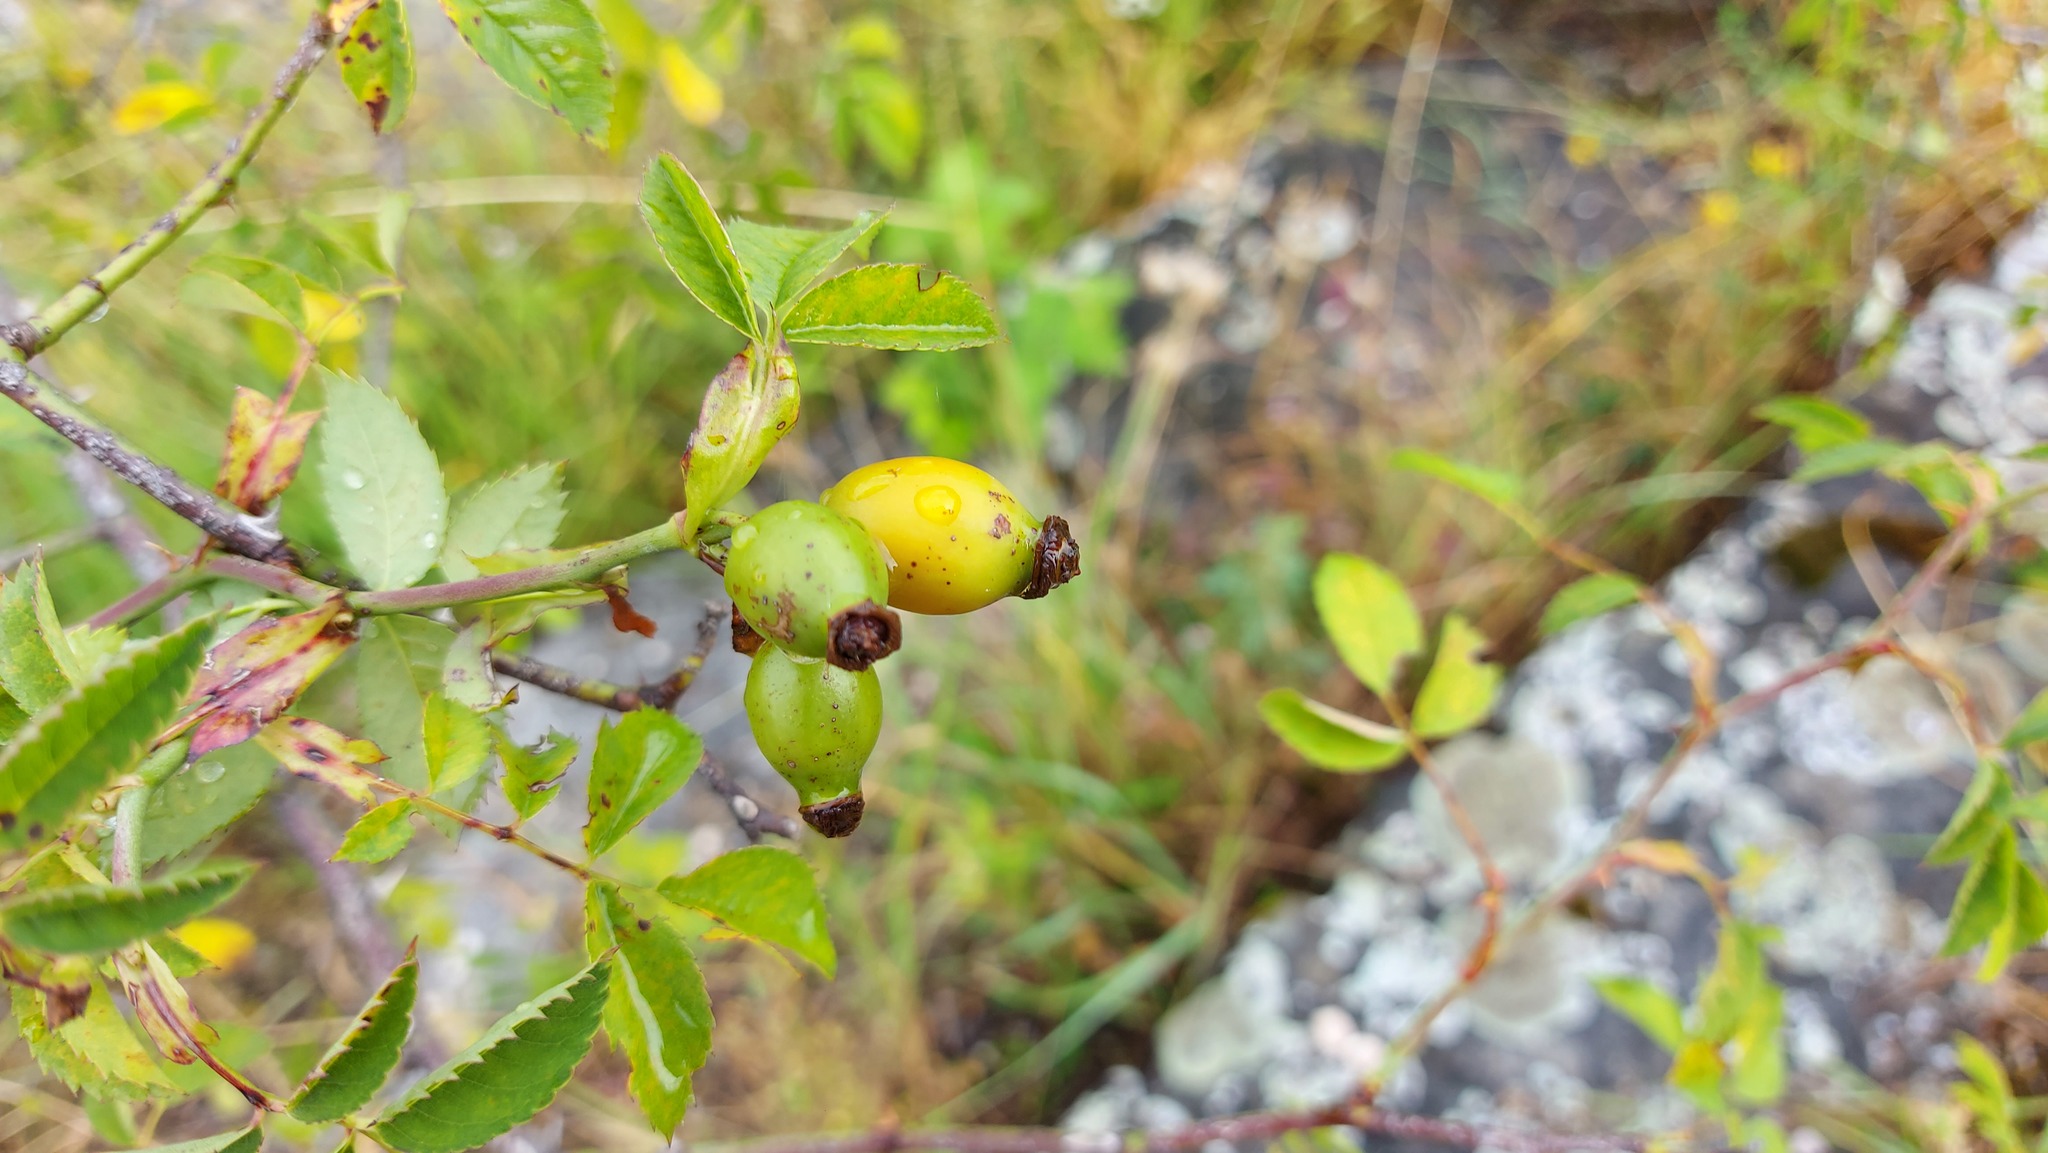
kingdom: Plantae
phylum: Tracheophyta
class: Magnoliopsida
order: Rosales
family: Rosaceae
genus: Rosa
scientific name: Rosa canina
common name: Dog rose
